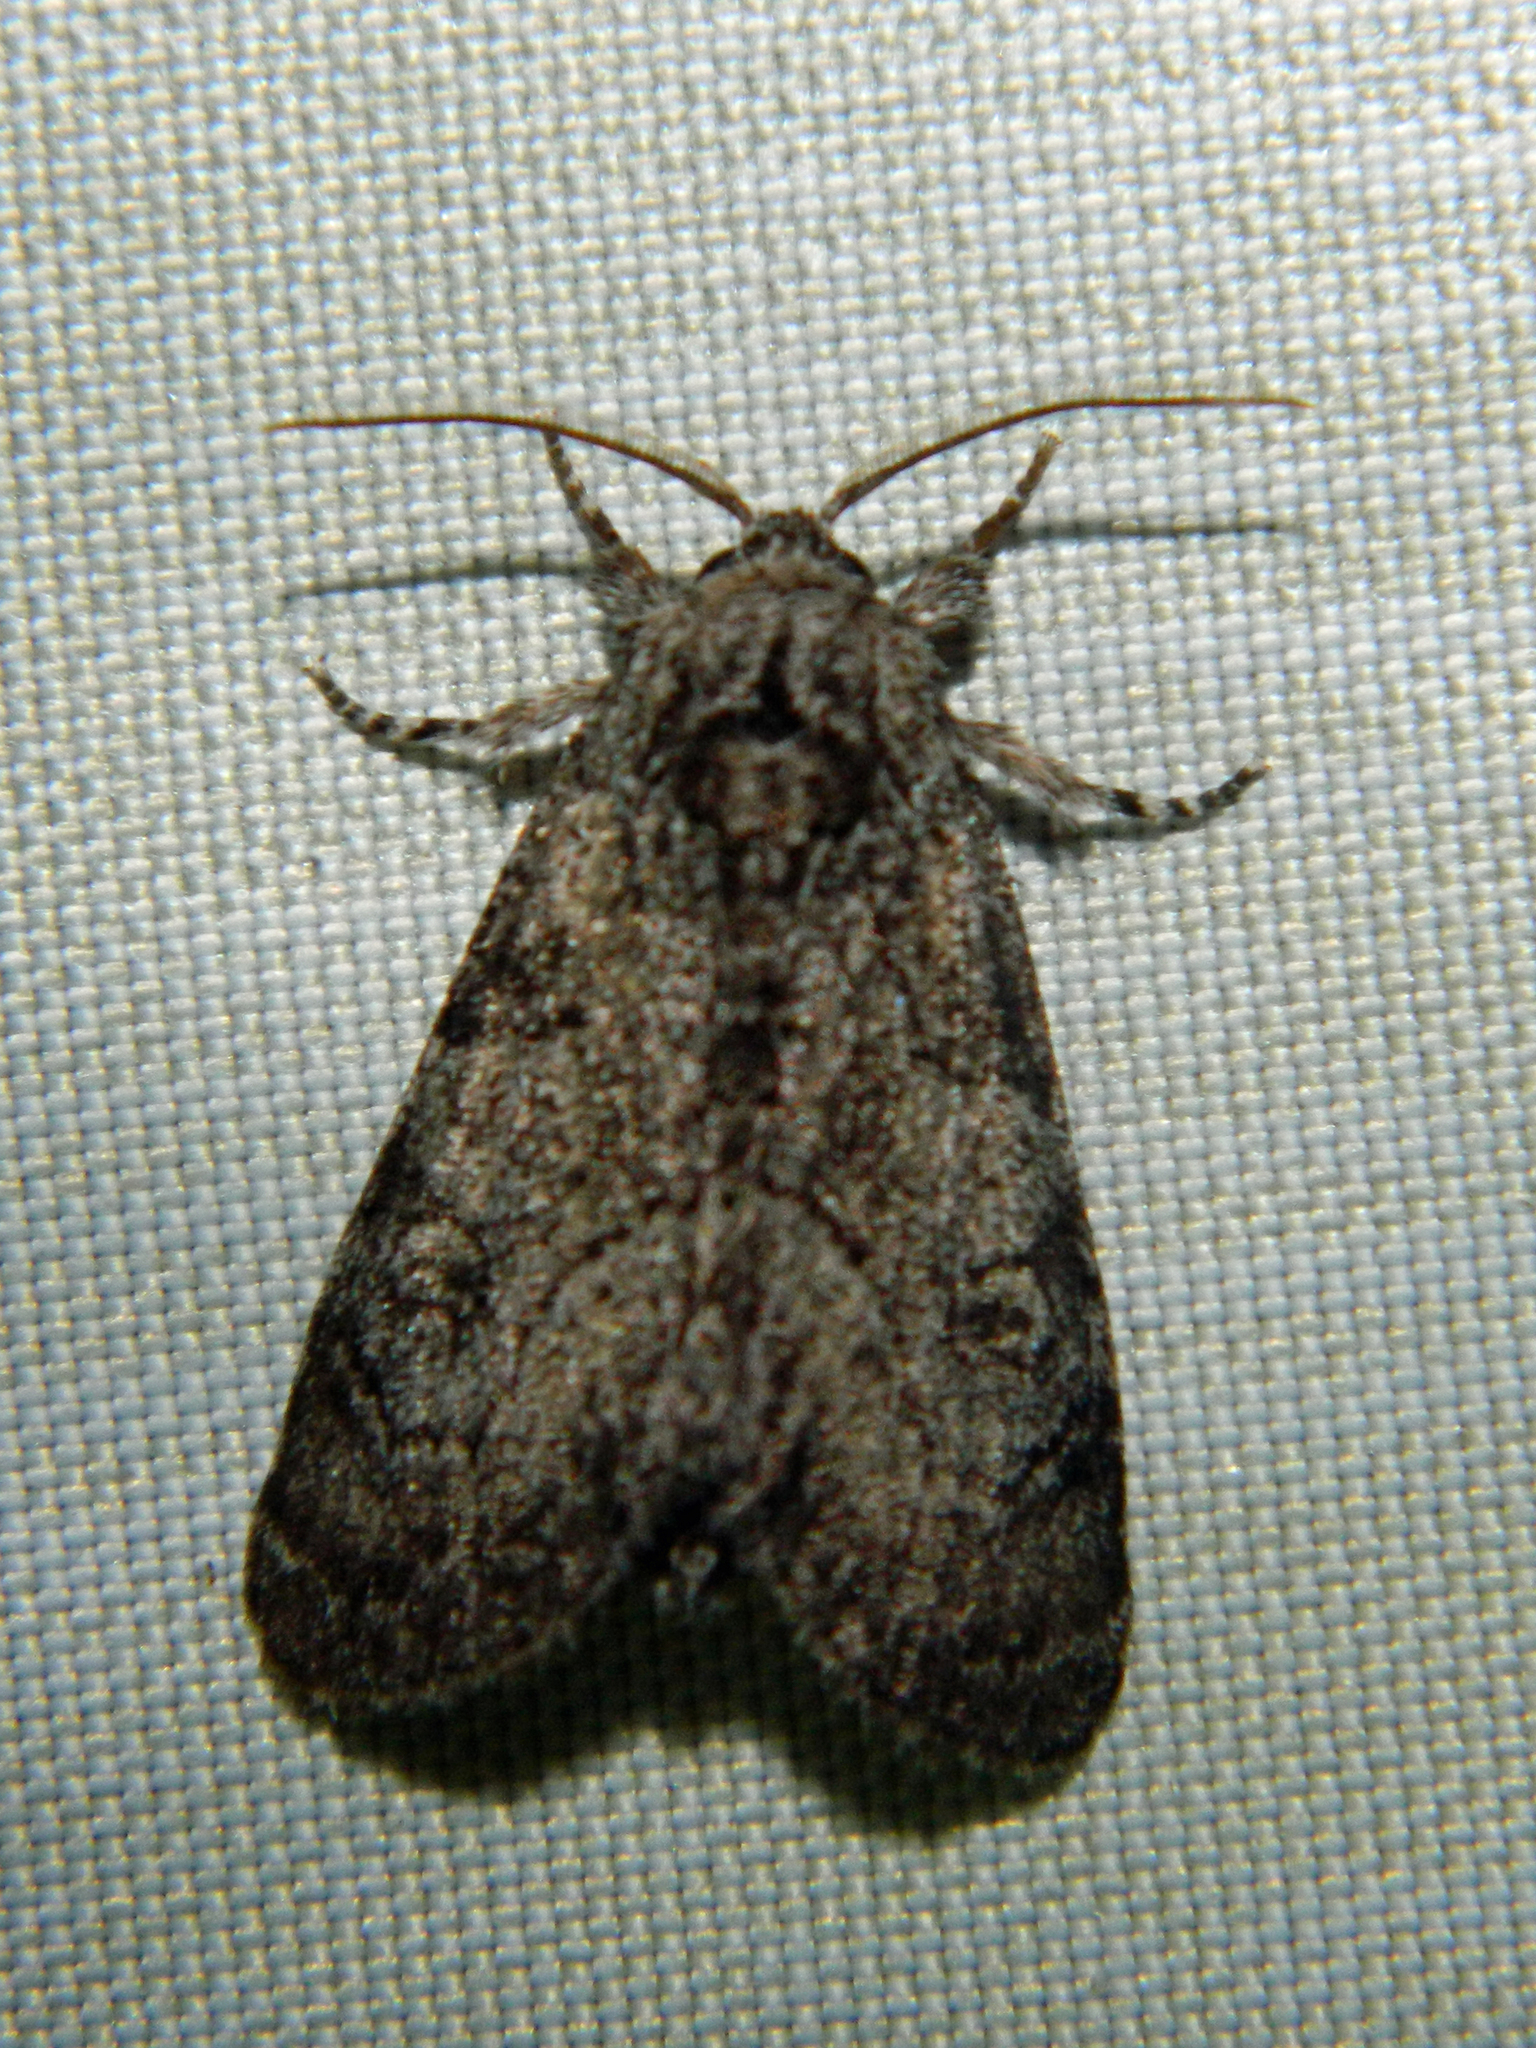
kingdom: Animalia
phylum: Arthropoda
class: Insecta
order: Lepidoptera
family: Noctuidae
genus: Raphia
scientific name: Raphia frater
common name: Brother
